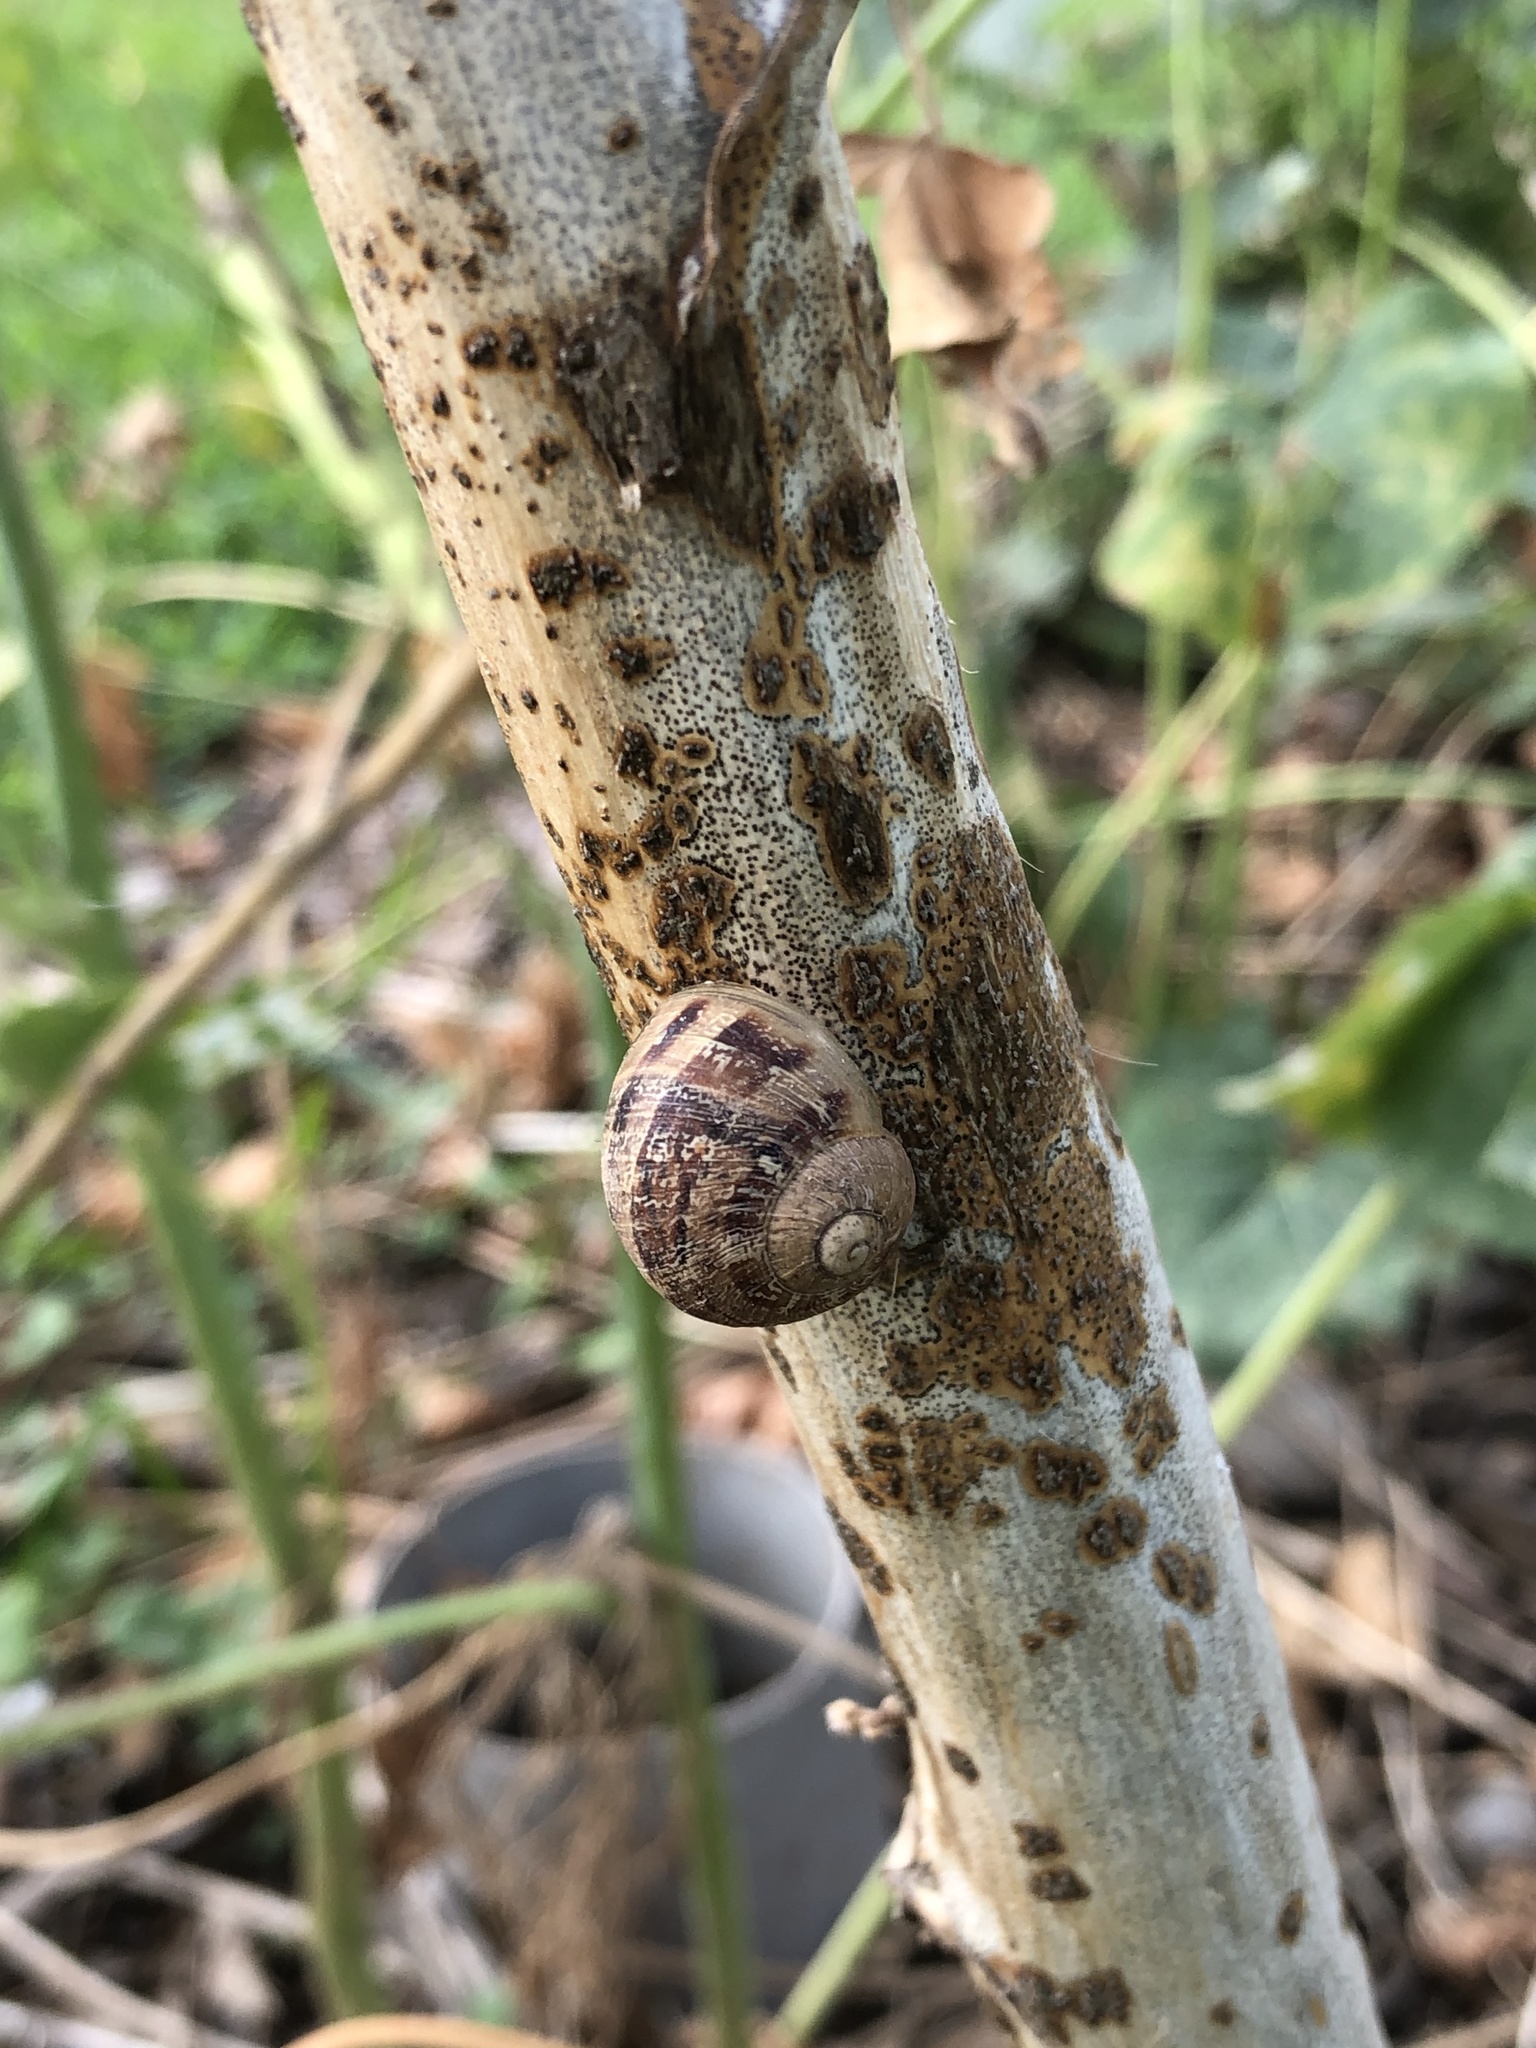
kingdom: Animalia
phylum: Mollusca
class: Gastropoda
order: Stylommatophora
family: Helicidae
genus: Cornu
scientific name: Cornu aspersum
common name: Brown garden snail
